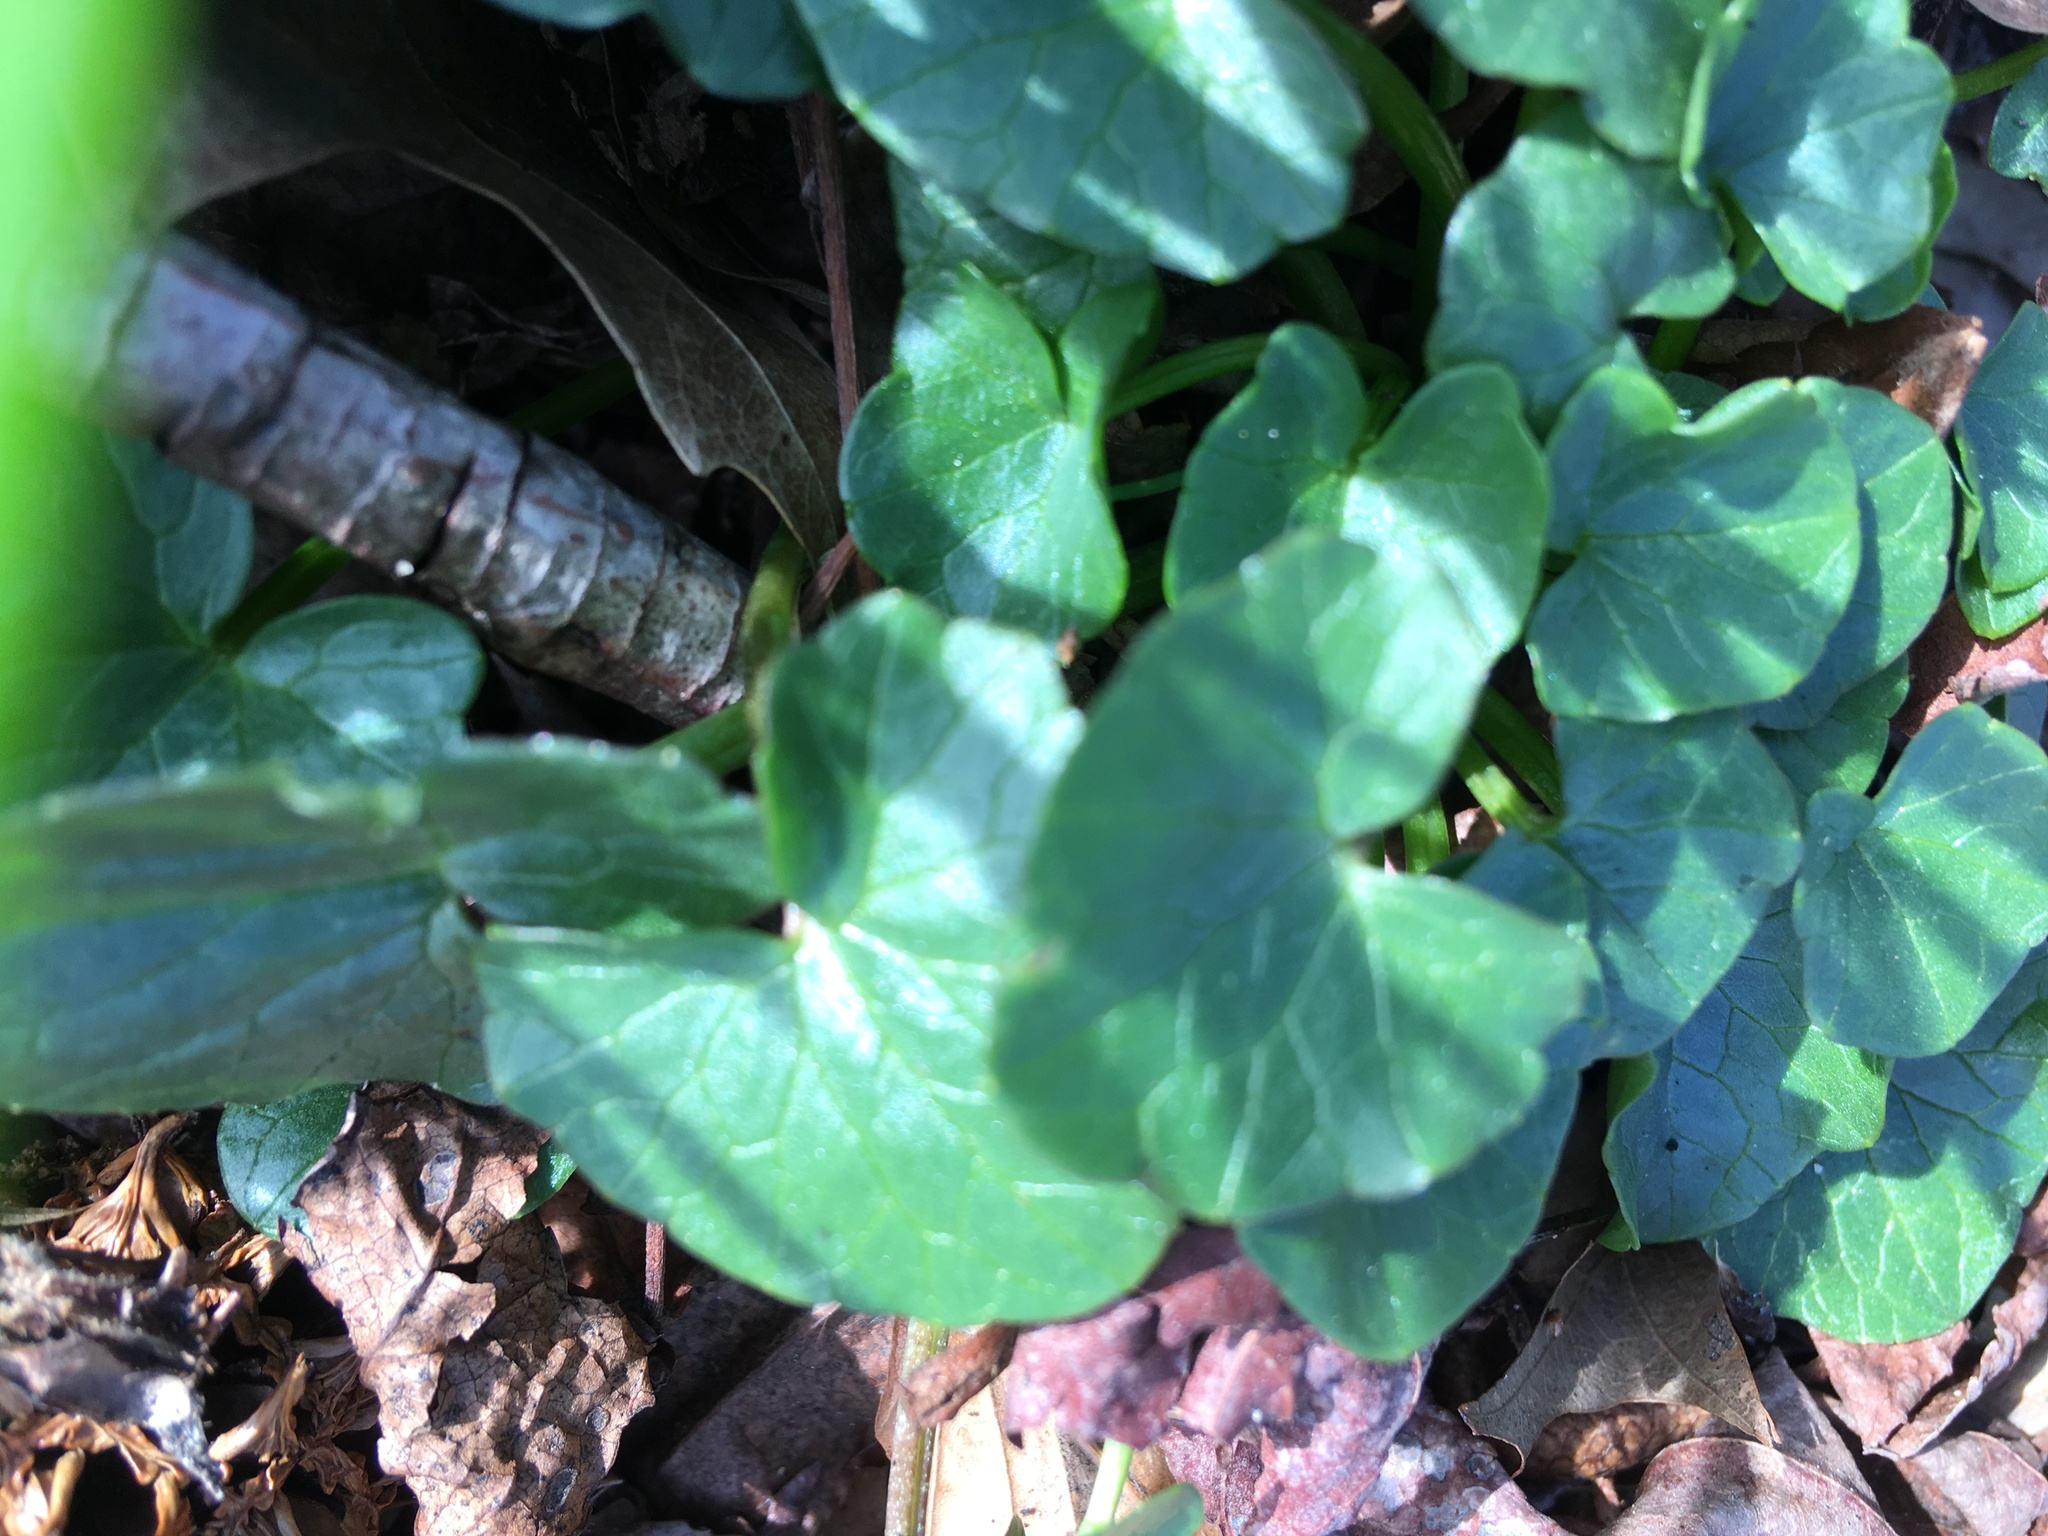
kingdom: Plantae
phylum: Tracheophyta
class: Magnoliopsida
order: Ranunculales
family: Ranunculaceae
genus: Ficaria
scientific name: Ficaria verna
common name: Lesser celandine
